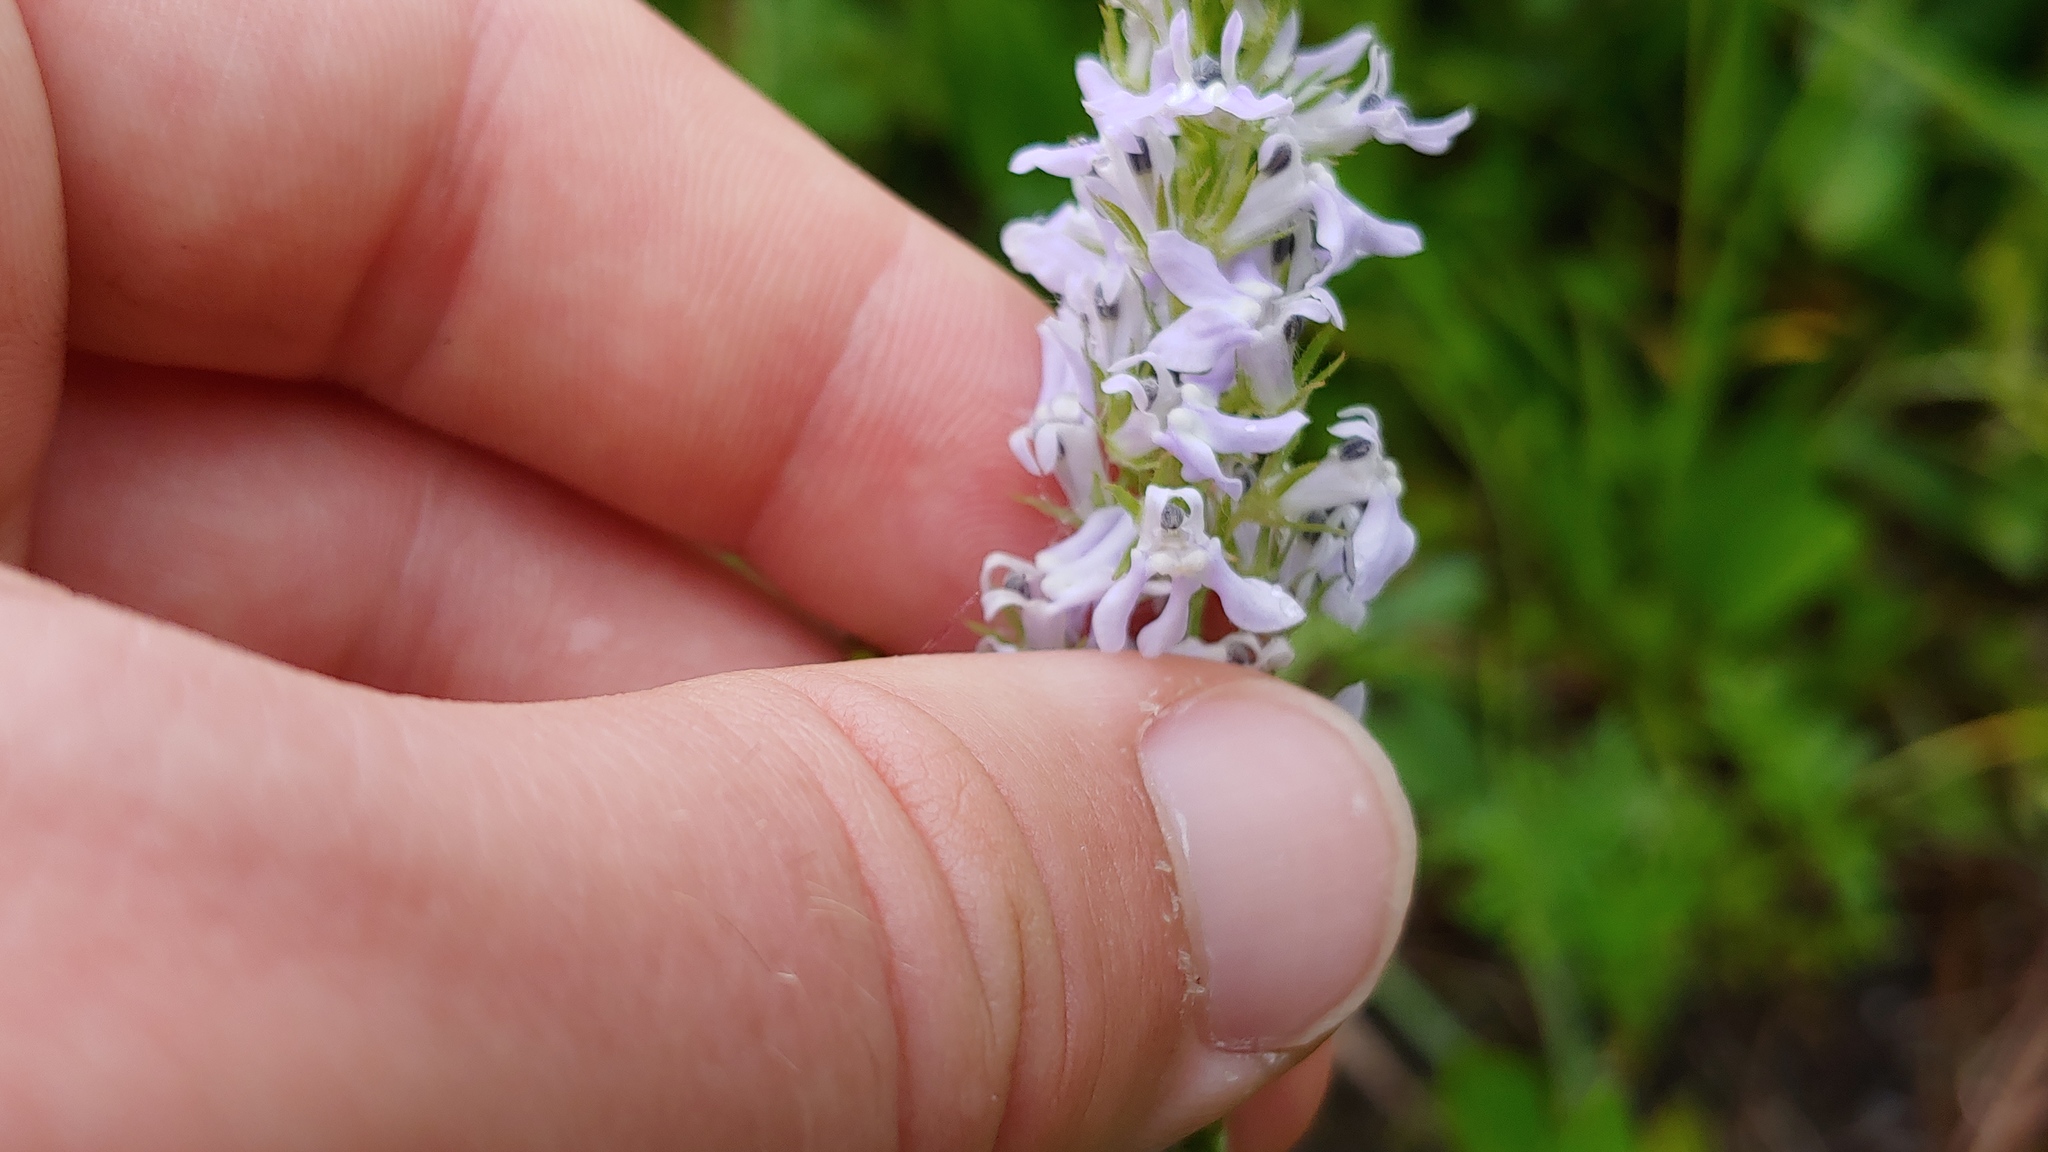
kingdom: Plantae
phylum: Tracheophyta
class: Magnoliopsida
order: Asterales
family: Campanulaceae
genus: Lobelia
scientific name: Lobelia spicata
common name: Pale-spike lobelia
